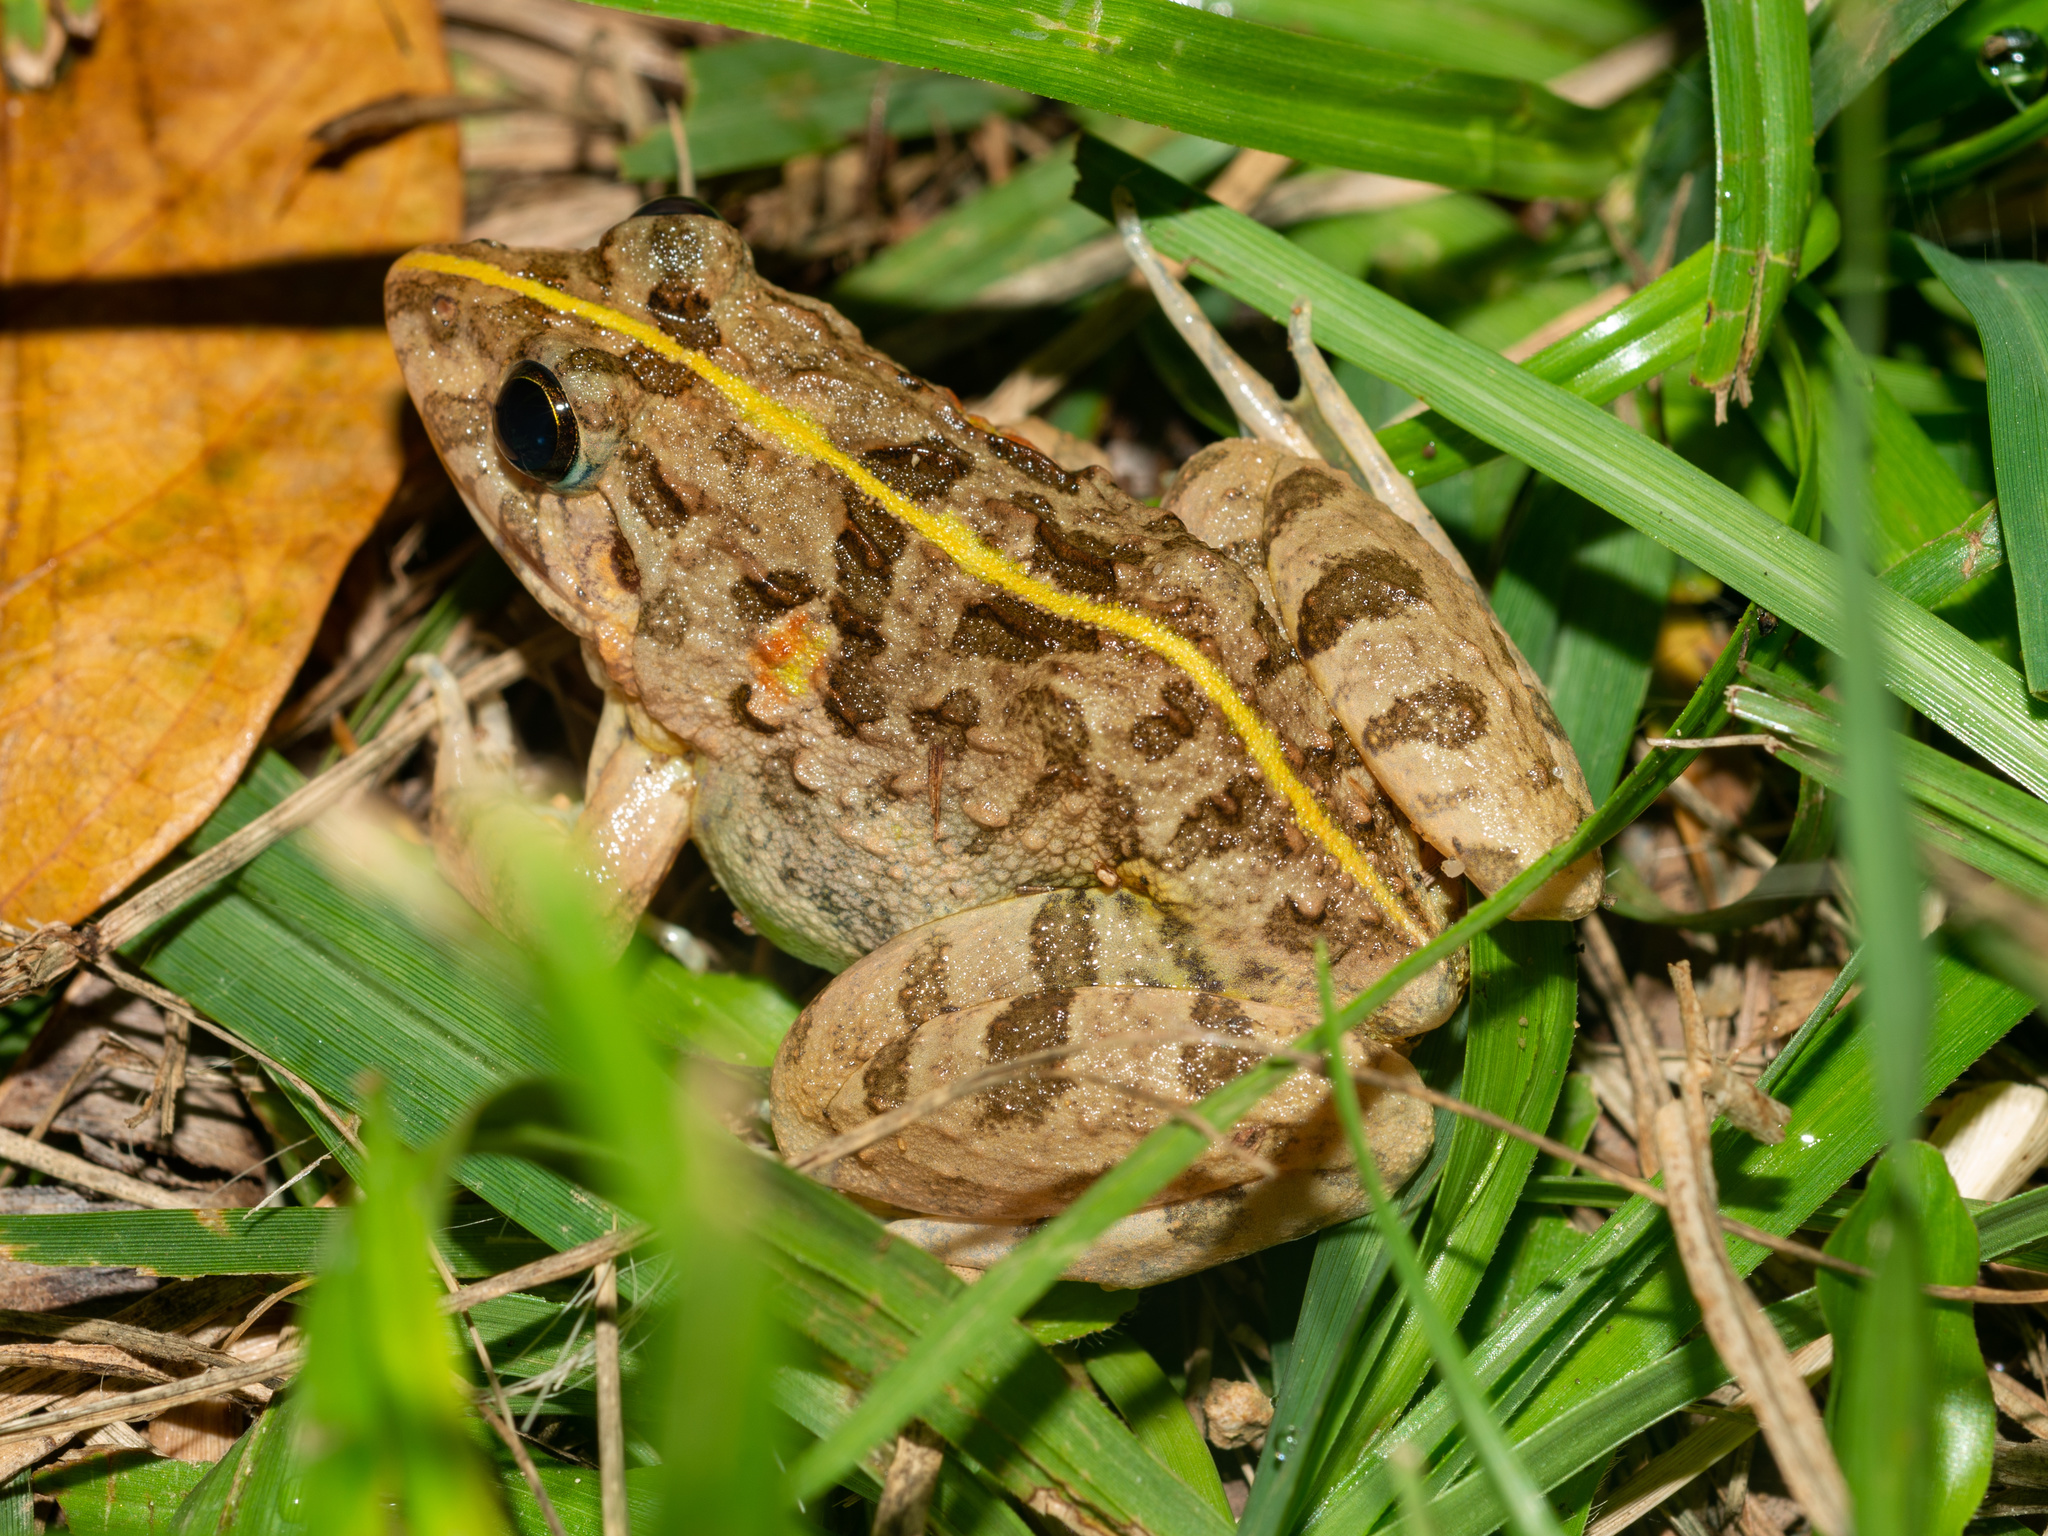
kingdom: Animalia
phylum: Chordata
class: Amphibia
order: Anura
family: Dicroglossidae
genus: Fejervarya
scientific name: Fejervarya multistriata
